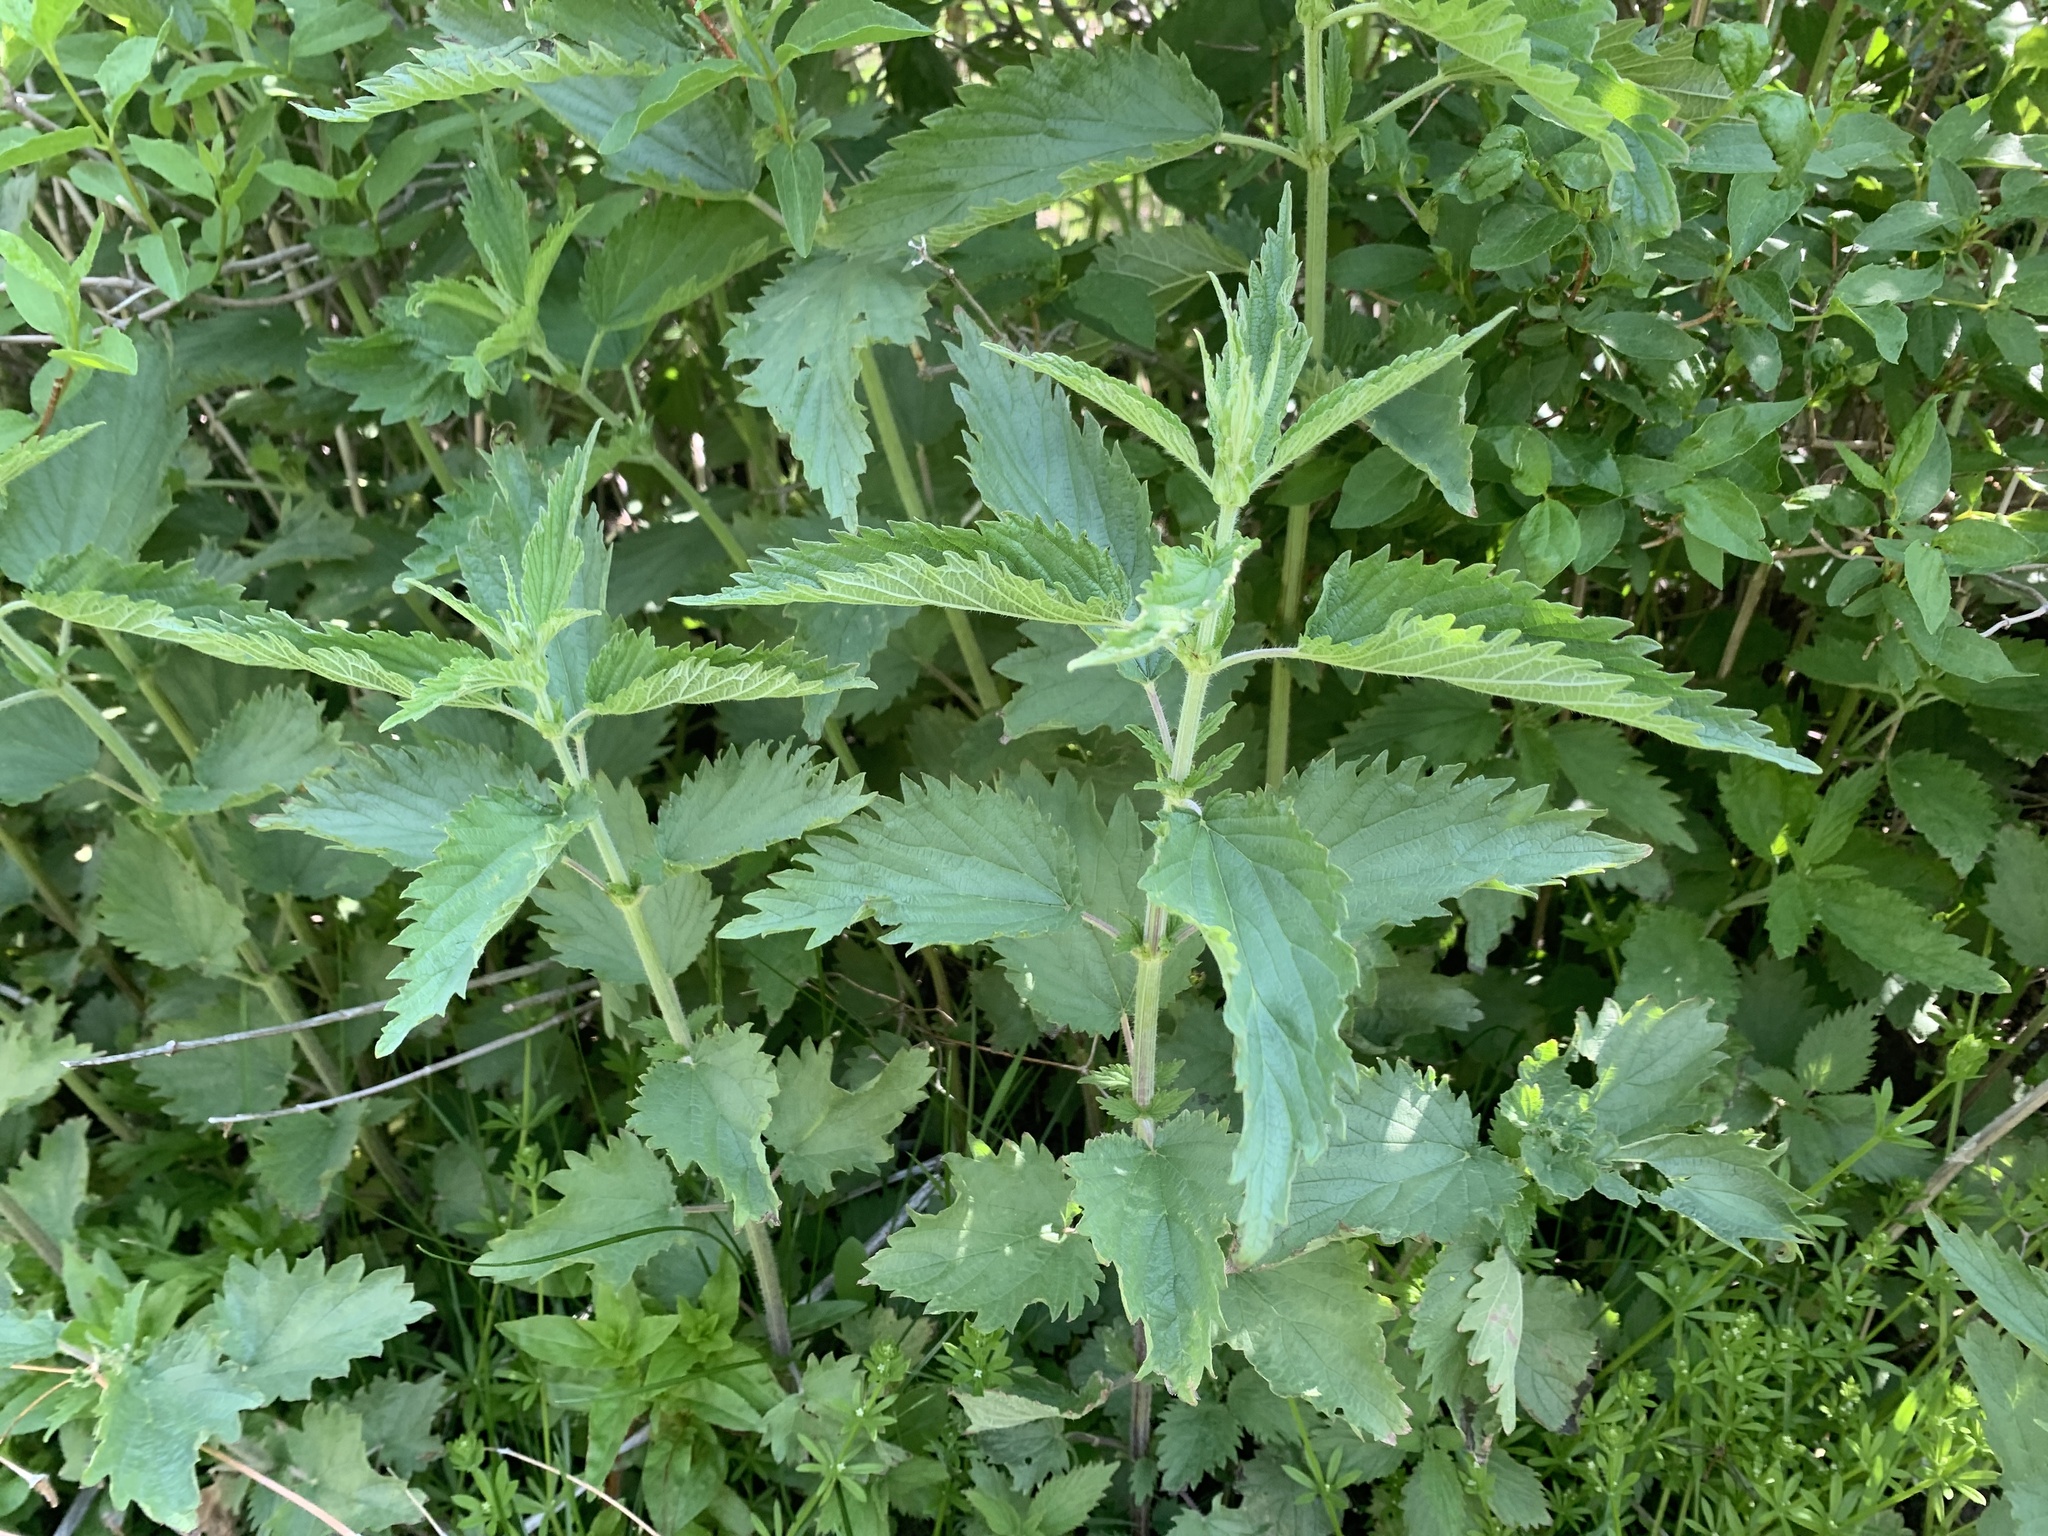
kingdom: Plantae
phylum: Tracheophyta
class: Magnoliopsida
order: Rosales
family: Urticaceae
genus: Urtica
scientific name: Urtica gracilis
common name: Slender stinging nettle
